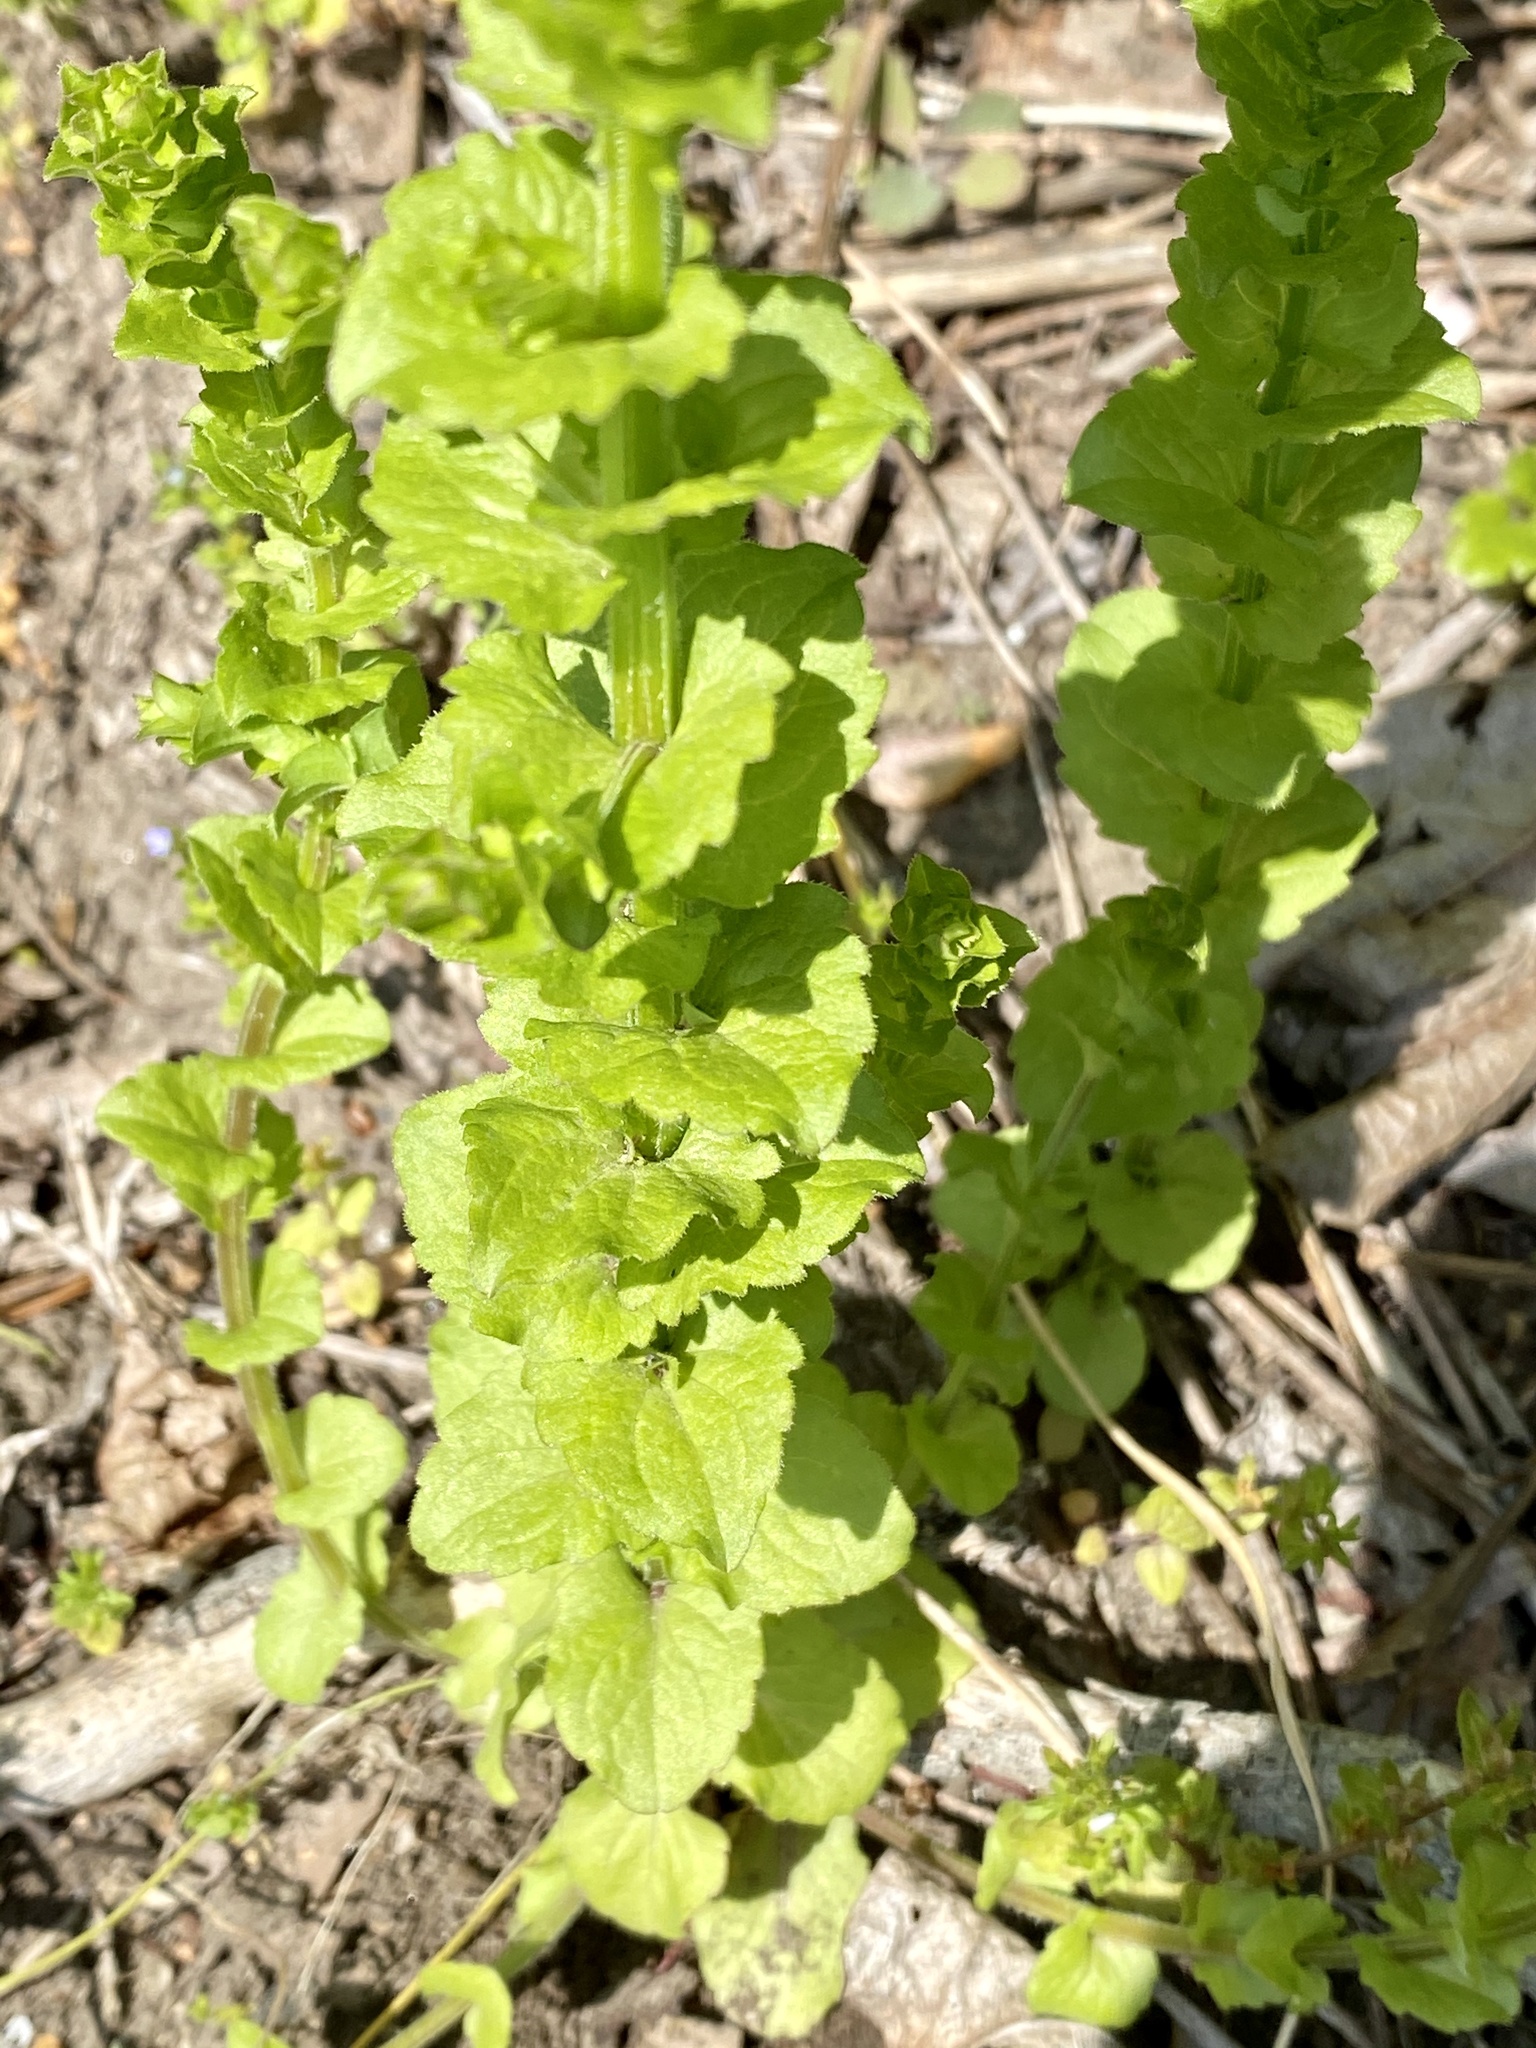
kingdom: Plantae
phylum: Tracheophyta
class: Magnoliopsida
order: Asterales
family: Campanulaceae
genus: Triodanis
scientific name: Triodanis perfoliata
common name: Clasping venus' looking-glass
